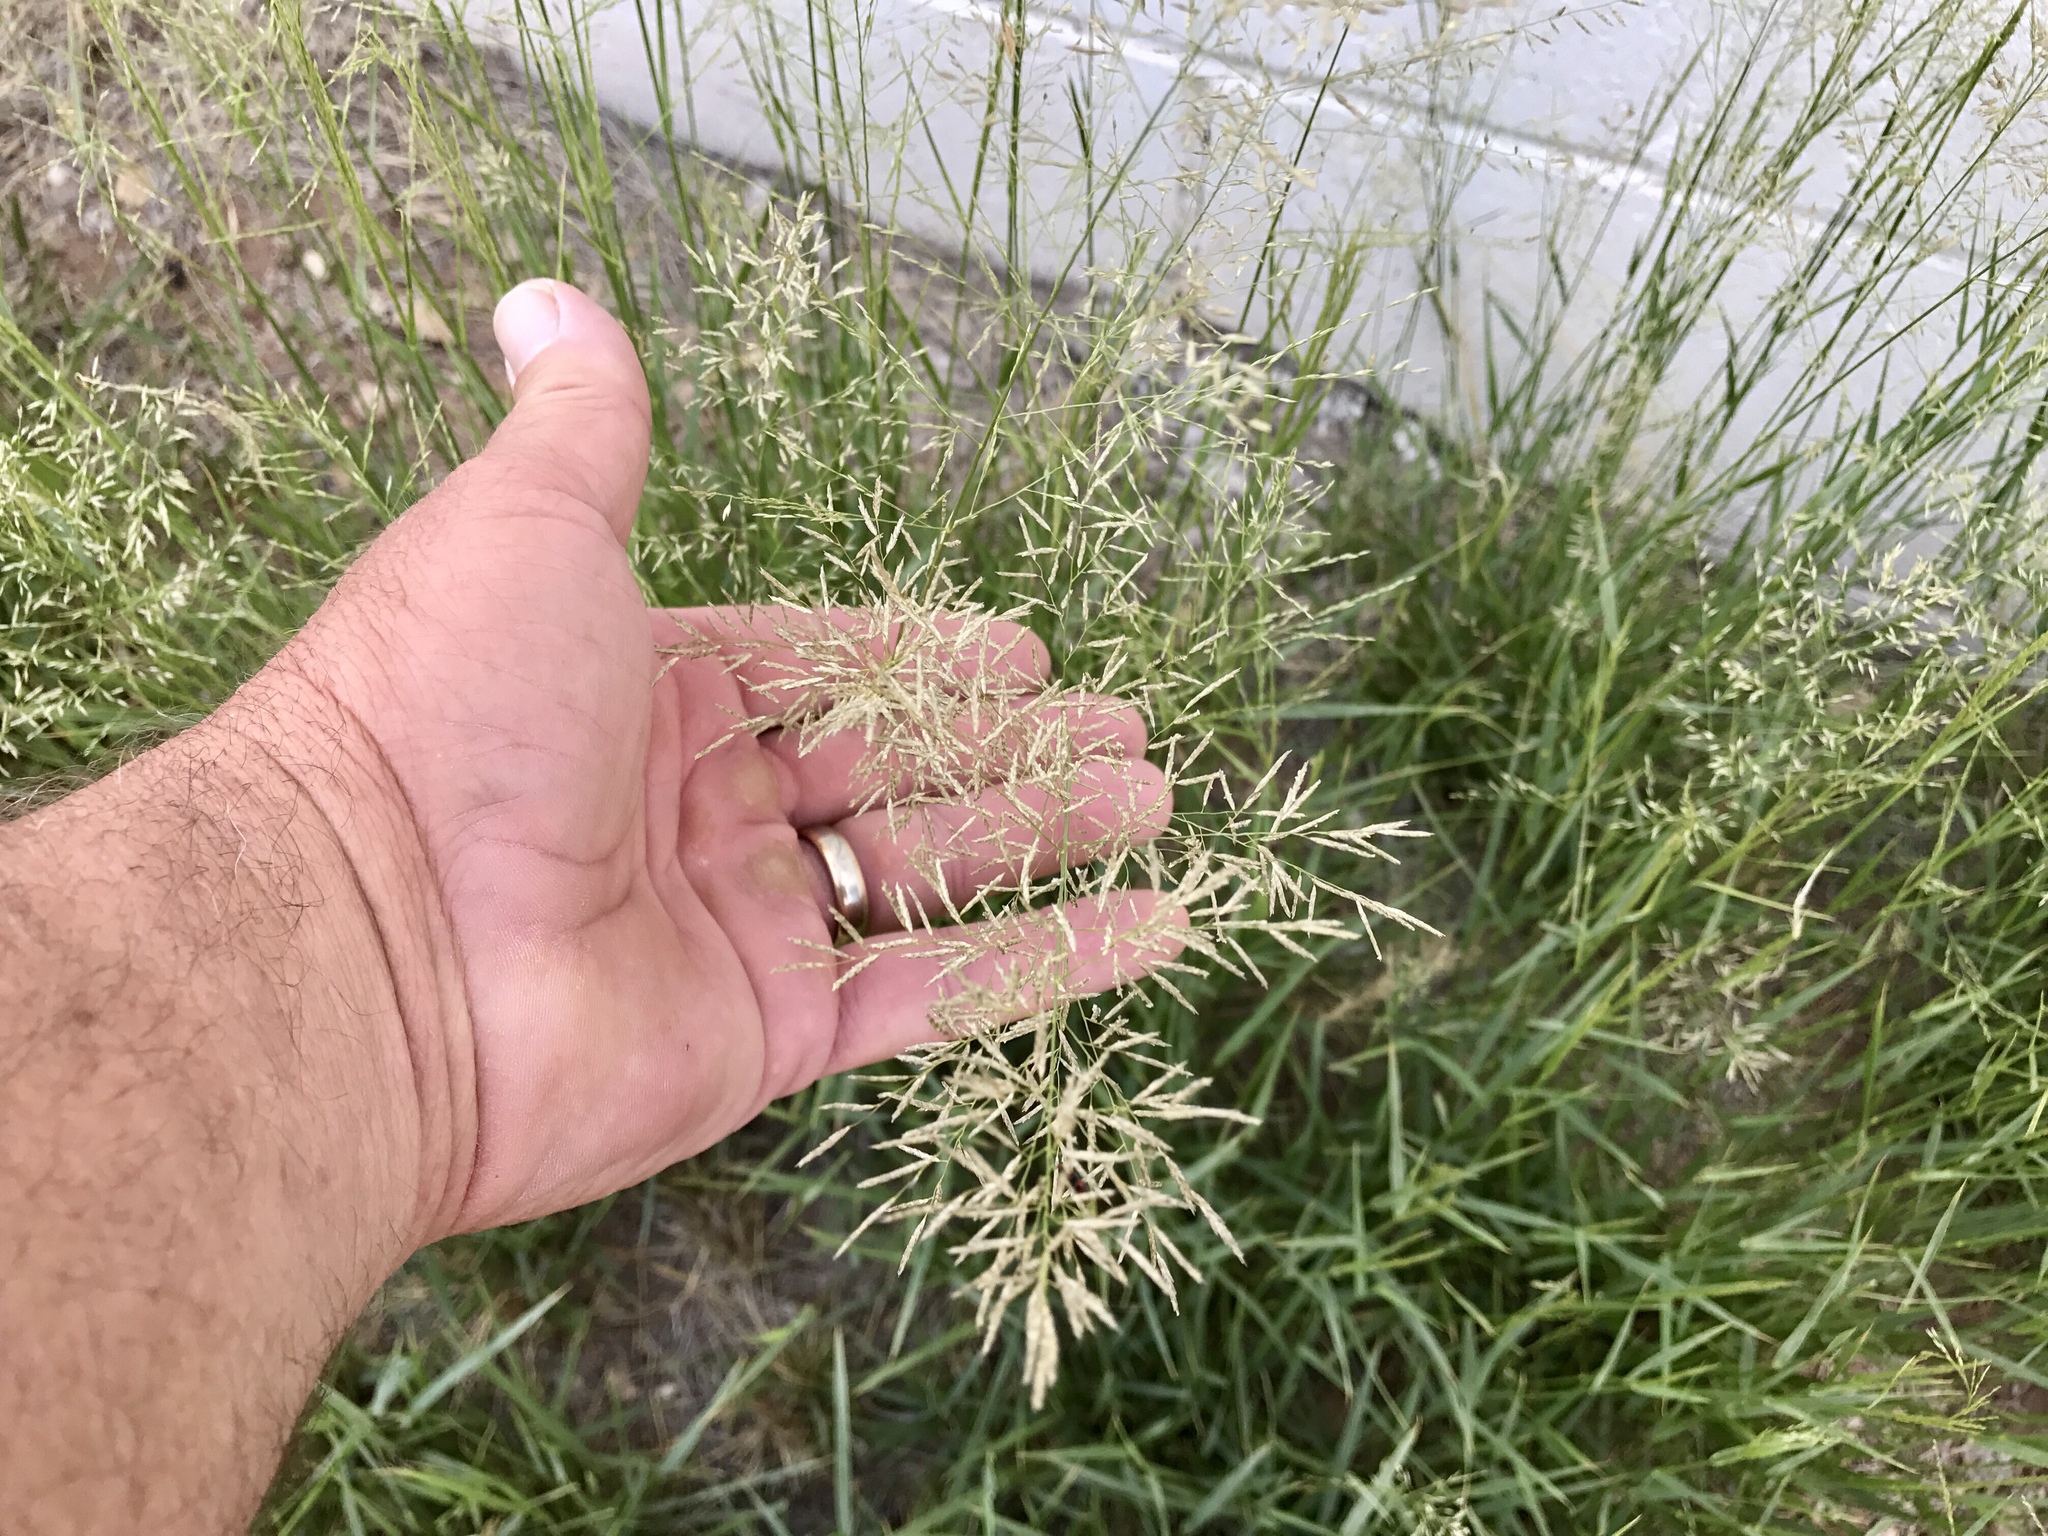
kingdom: Plantae
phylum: Tracheophyta
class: Liliopsida
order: Poales
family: Poaceae
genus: Eragrostis
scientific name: Eragrostis lehmanniana
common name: Lehmann lovegrass
